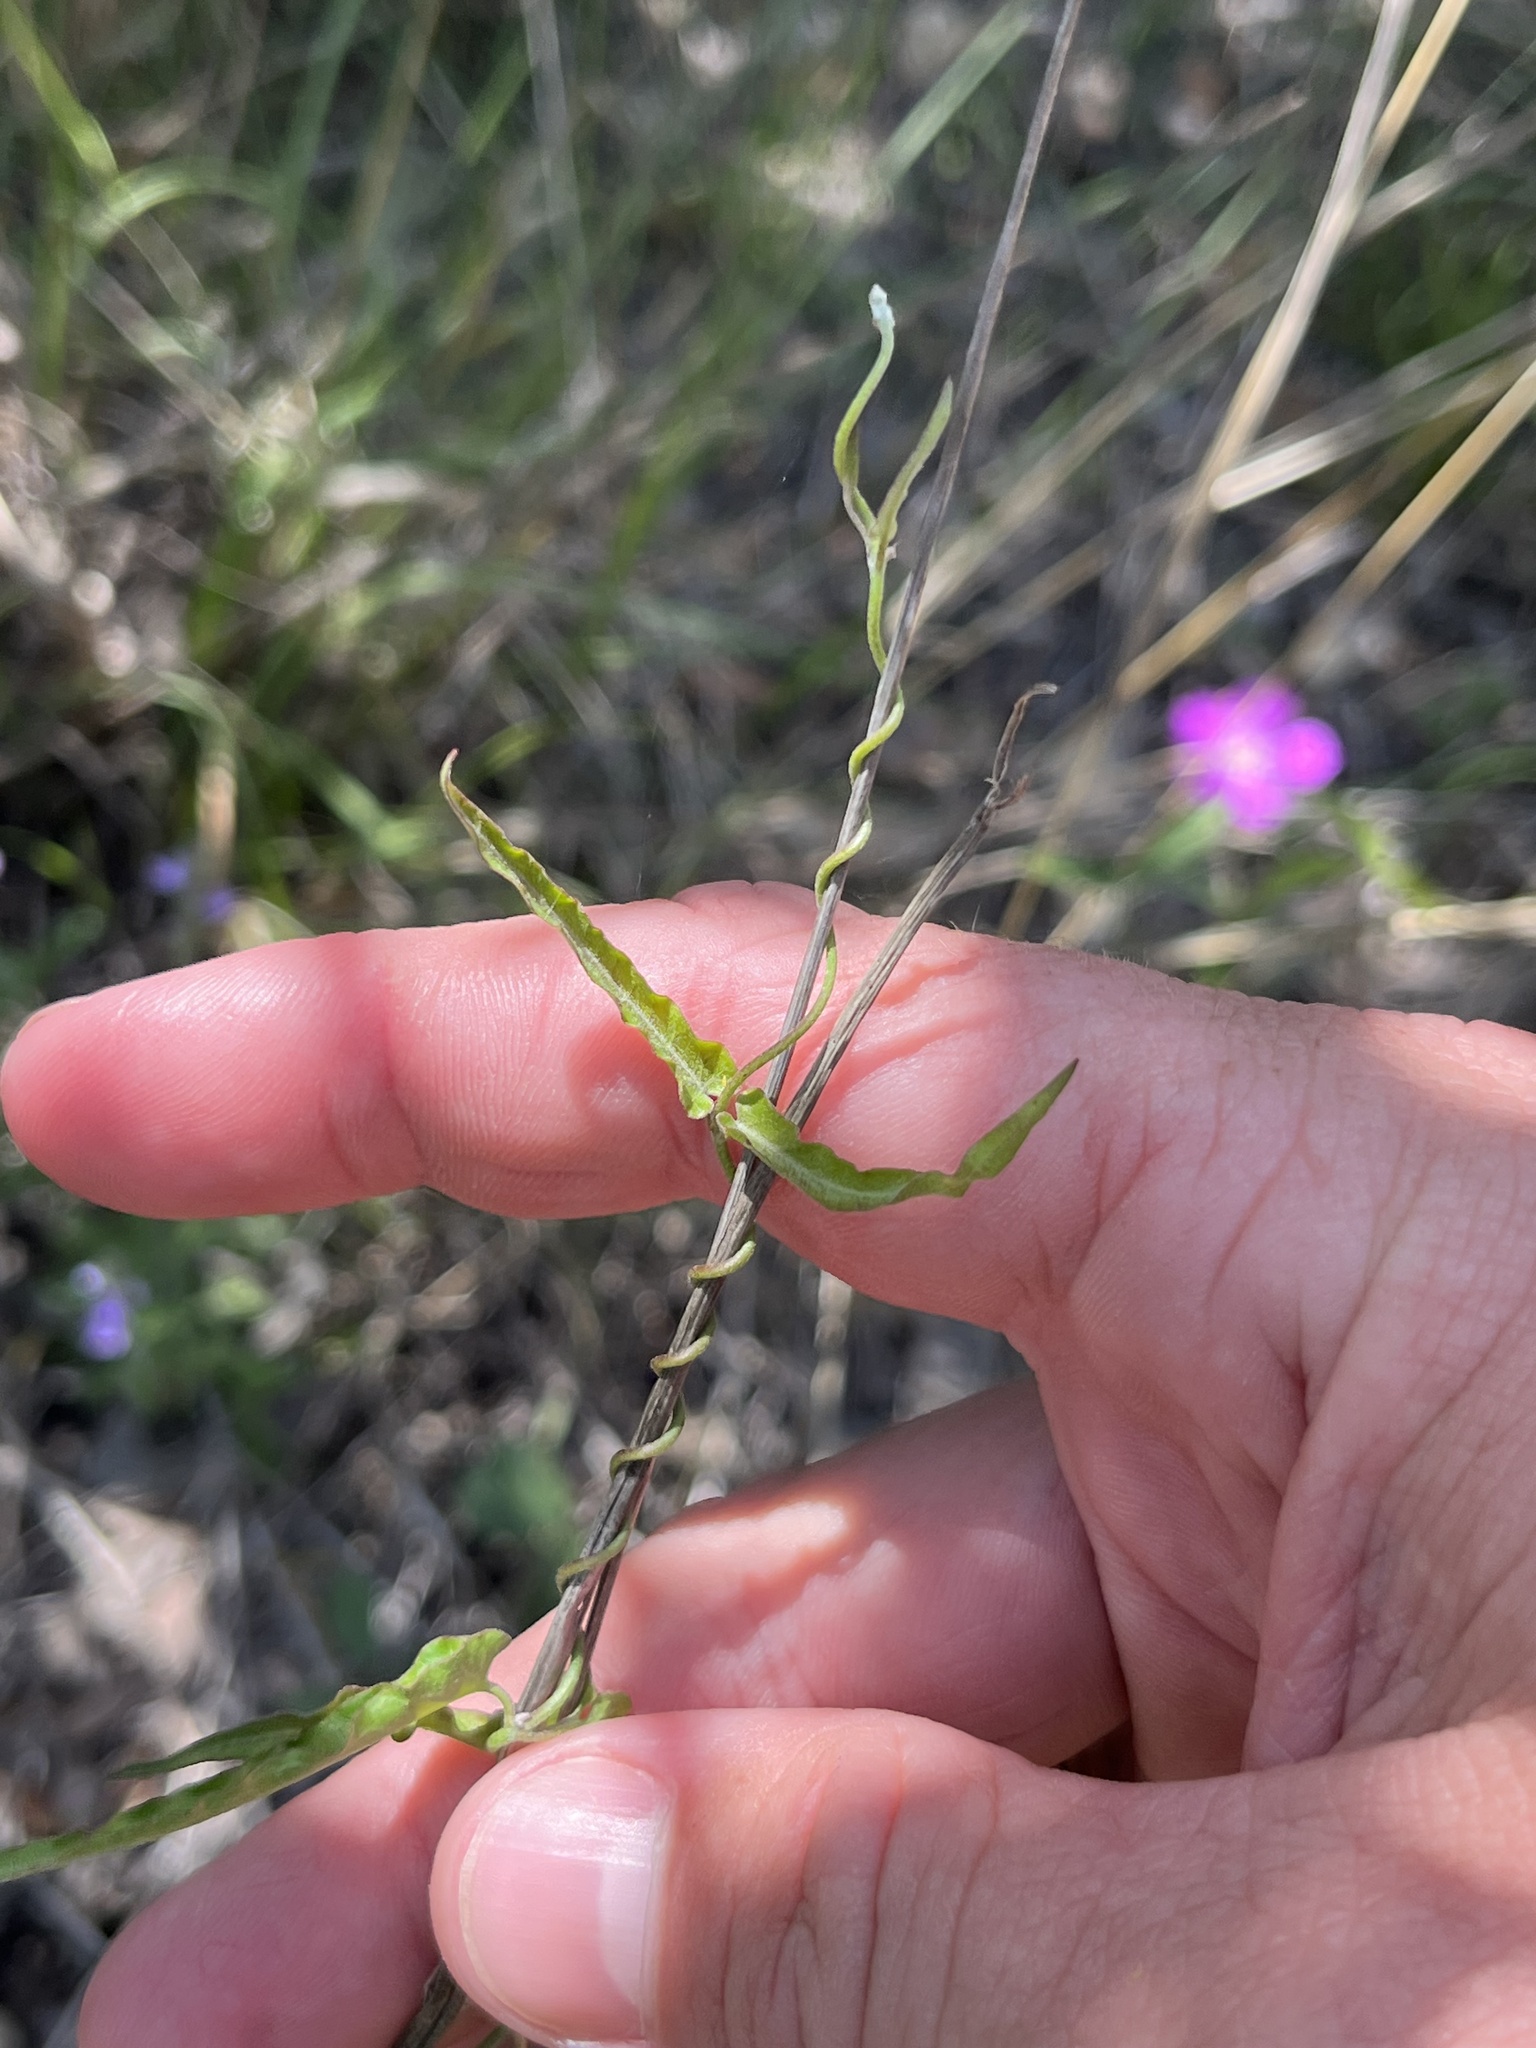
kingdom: Plantae
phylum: Tracheophyta
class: Magnoliopsida
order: Gentianales
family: Apocynaceae
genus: Funastrum
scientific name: Funastrum crispum
